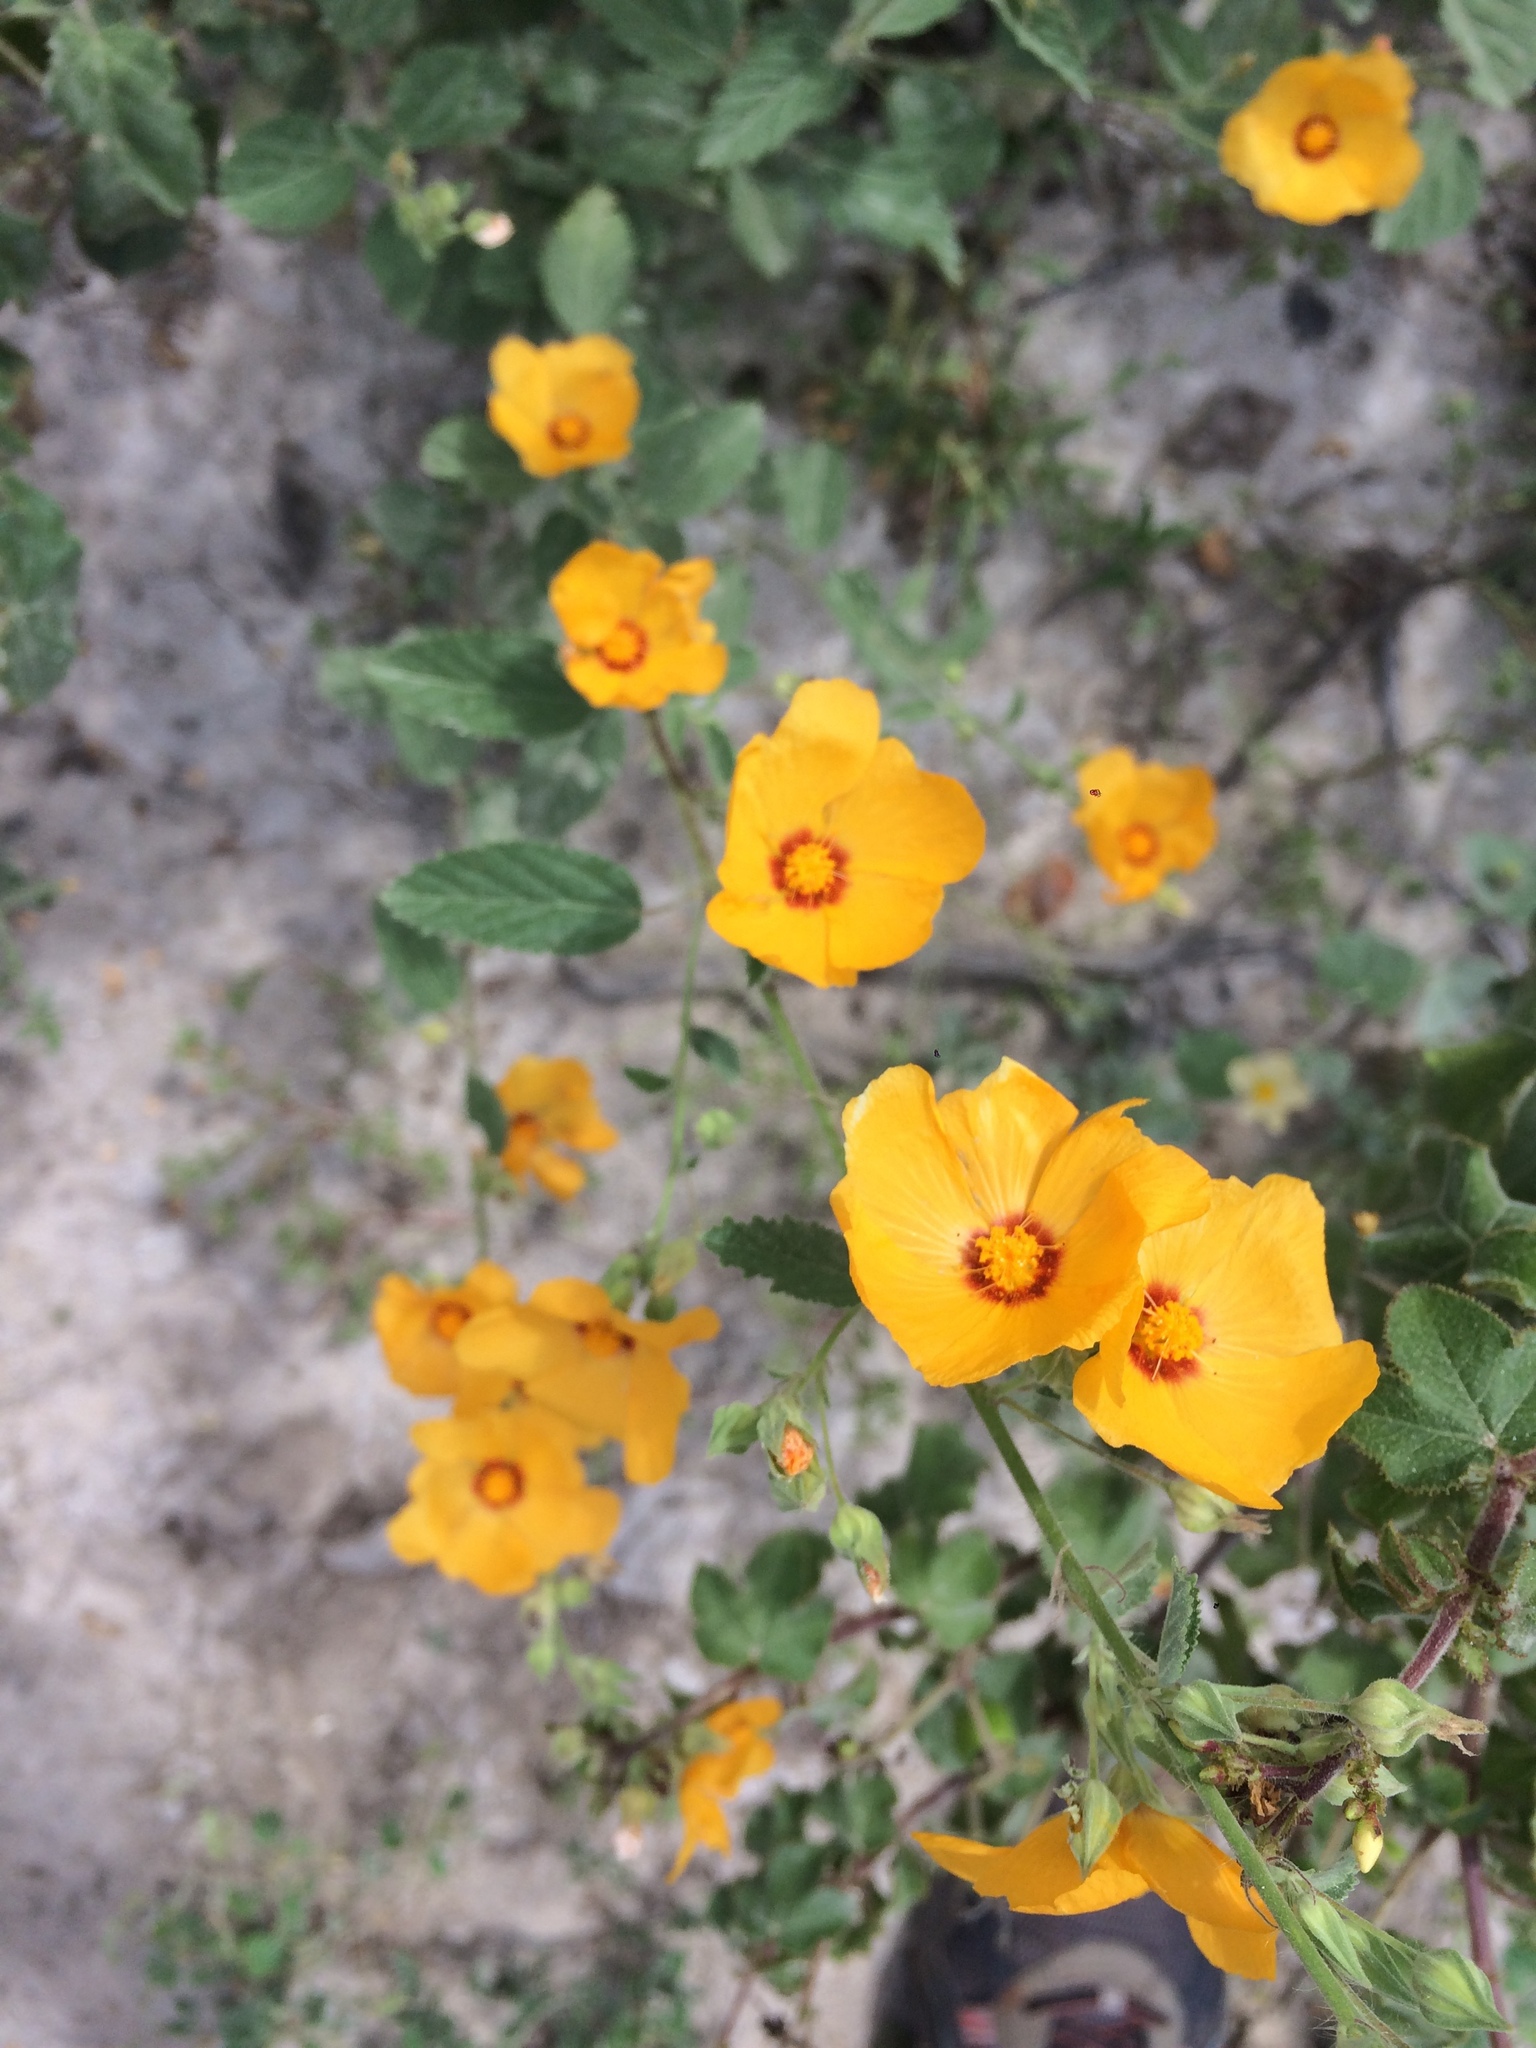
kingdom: Plantae
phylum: Tracheophyta
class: Magnoliopsida
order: Malvales
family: Malvaceae
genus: Sida
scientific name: Sida galheirensis
